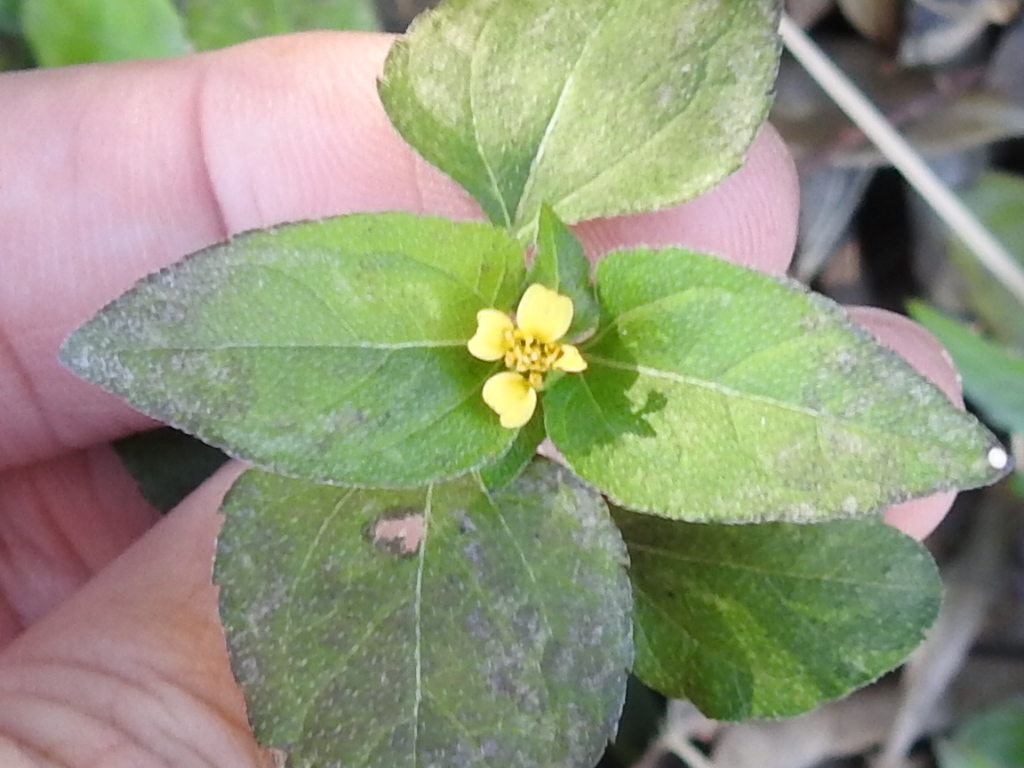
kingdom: Plantae
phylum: Tracheophyta
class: Magnoliopsida
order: Asterales
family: Asteraceae
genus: Calyptocarpus
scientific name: Calyptocarpus vialis
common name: Straggler daisy
